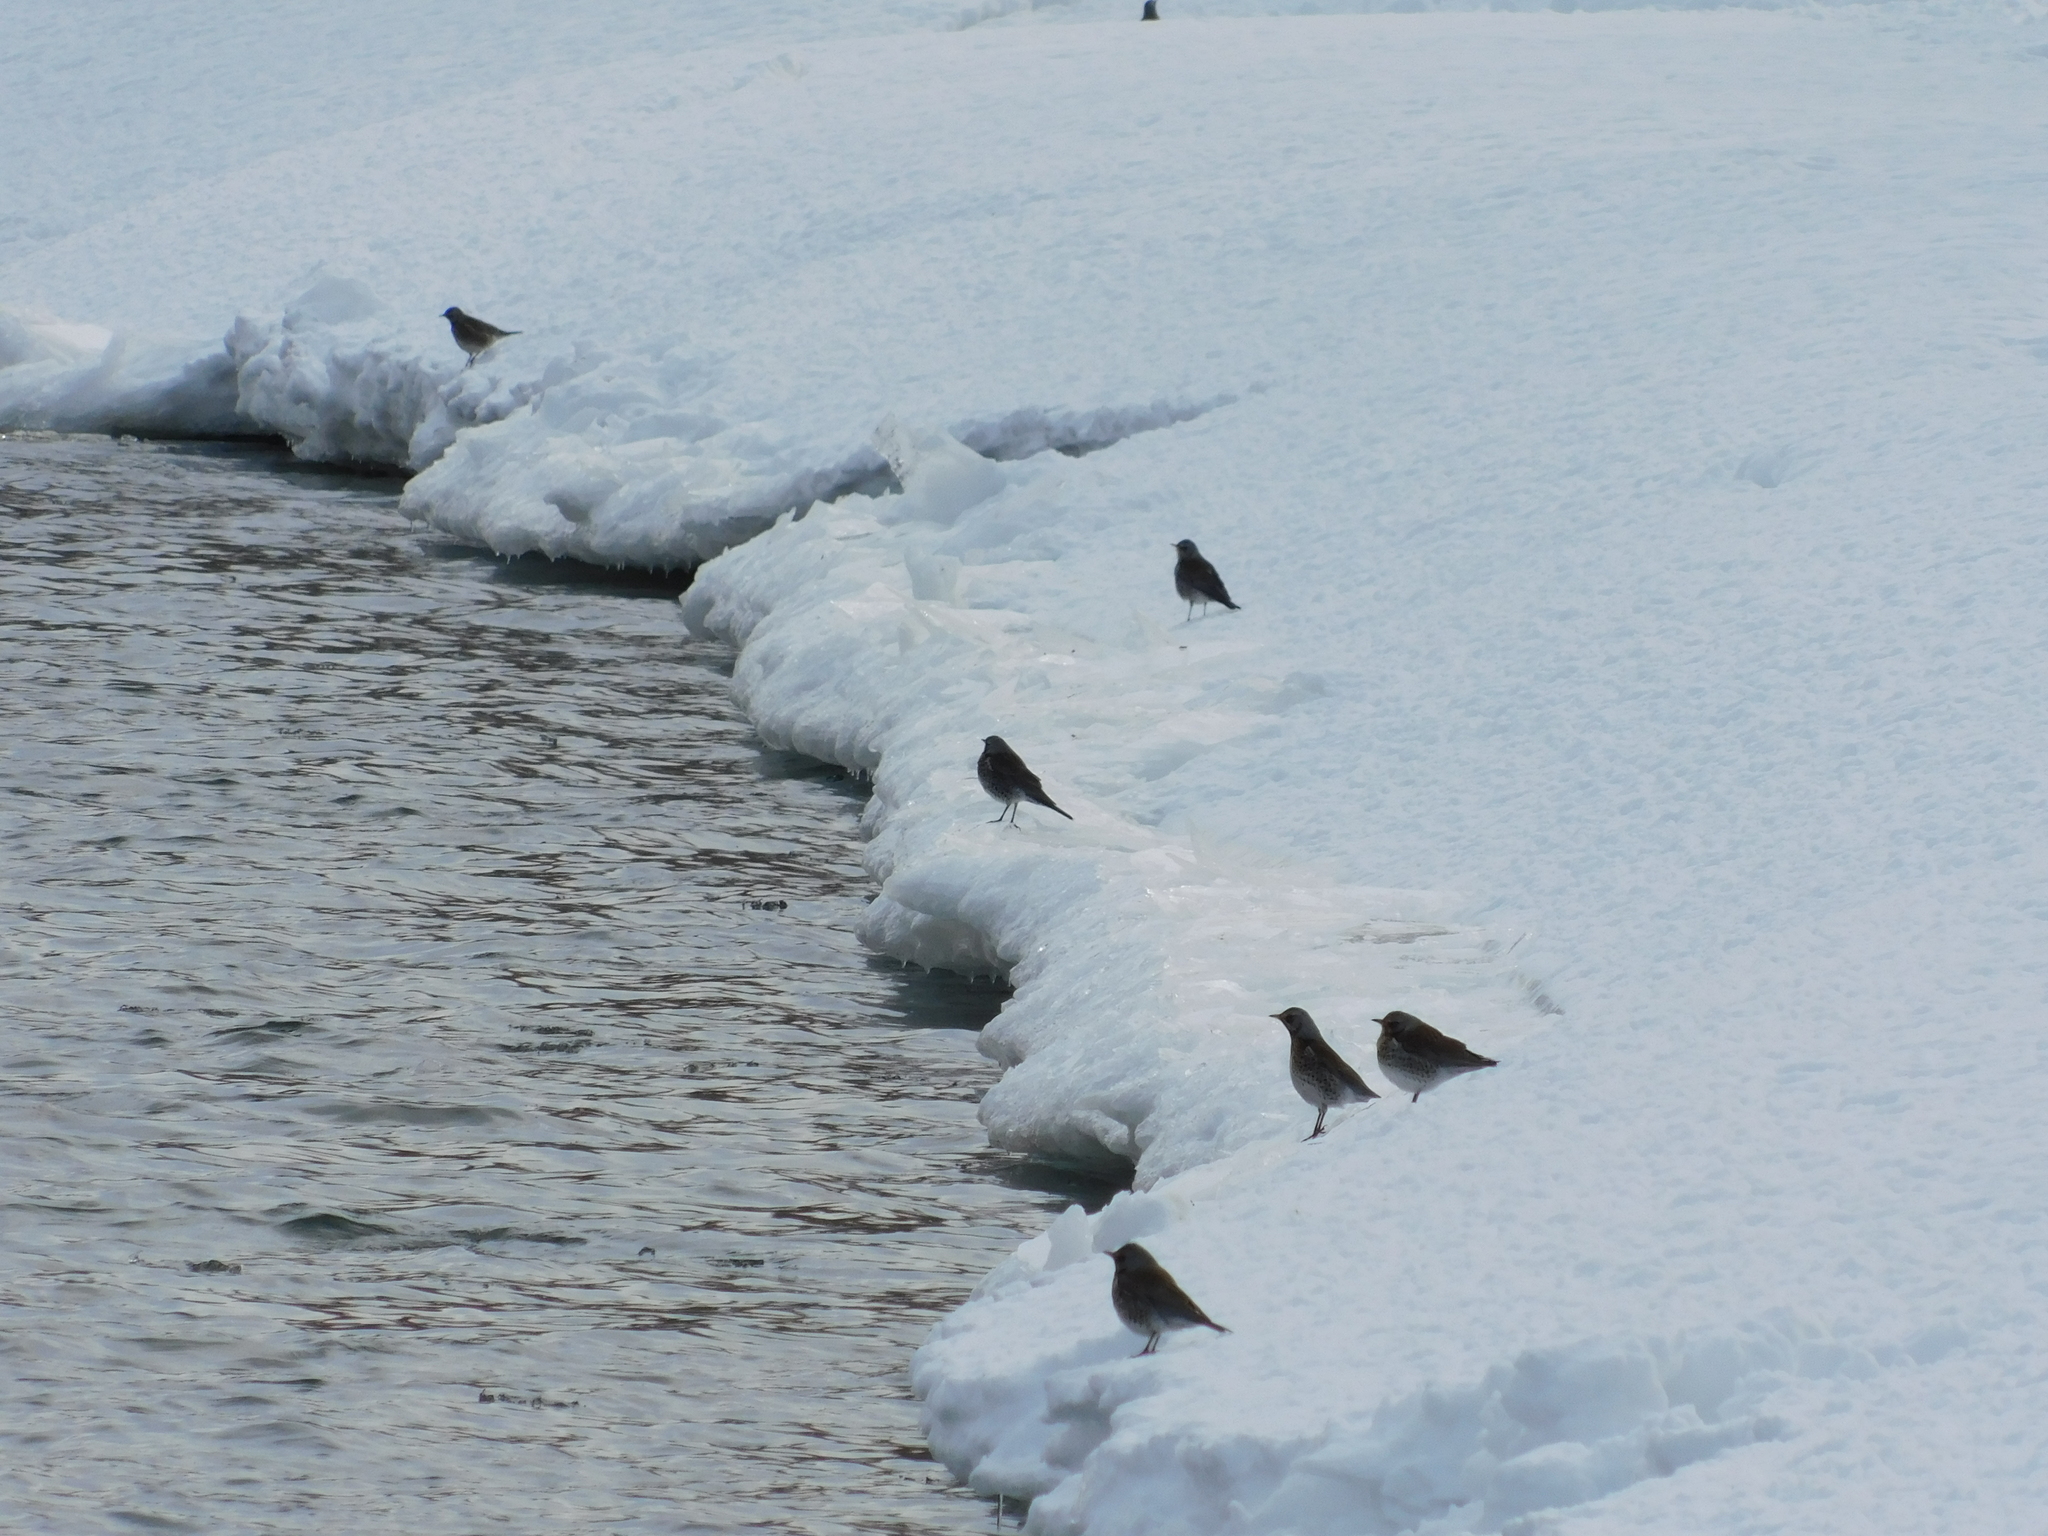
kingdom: Animalia
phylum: Chordata
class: Aves
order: Passeriformes
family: Turdidae
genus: Turdus
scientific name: Turdus pilaris
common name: Fieldfare
